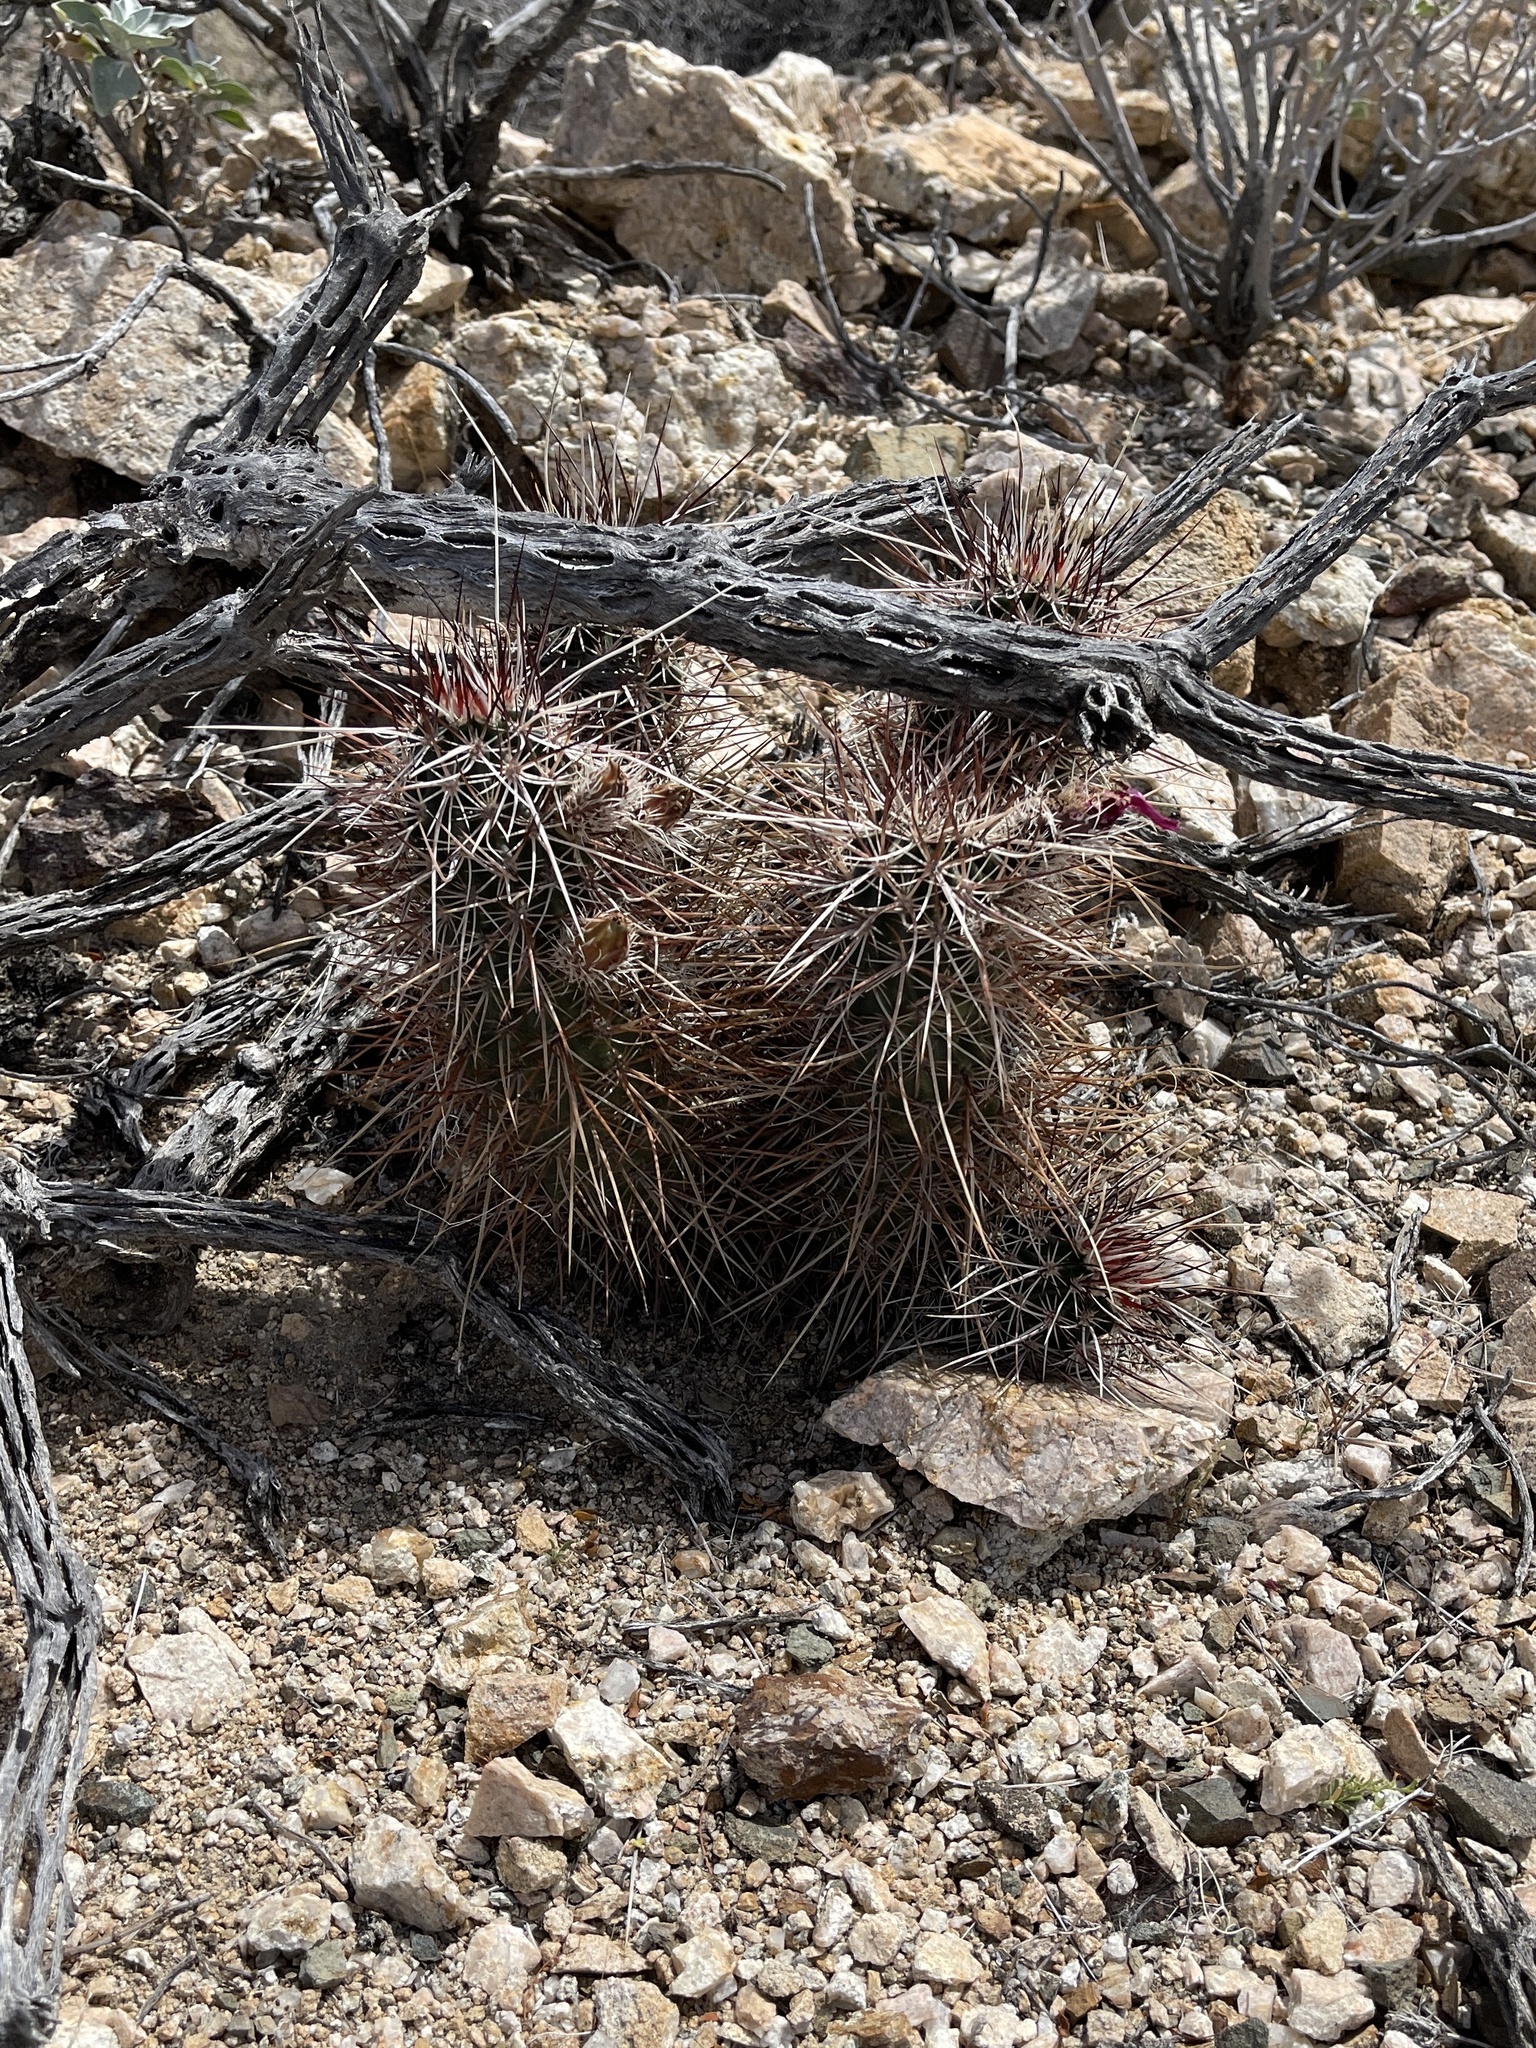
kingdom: Plantae
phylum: Tracheophyta
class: Magnoliopsida
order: Caryophyllales
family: Cactaceae
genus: Echinocereus
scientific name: Echinocereus engelmannii
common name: Engelmann's hedgehog cactus
